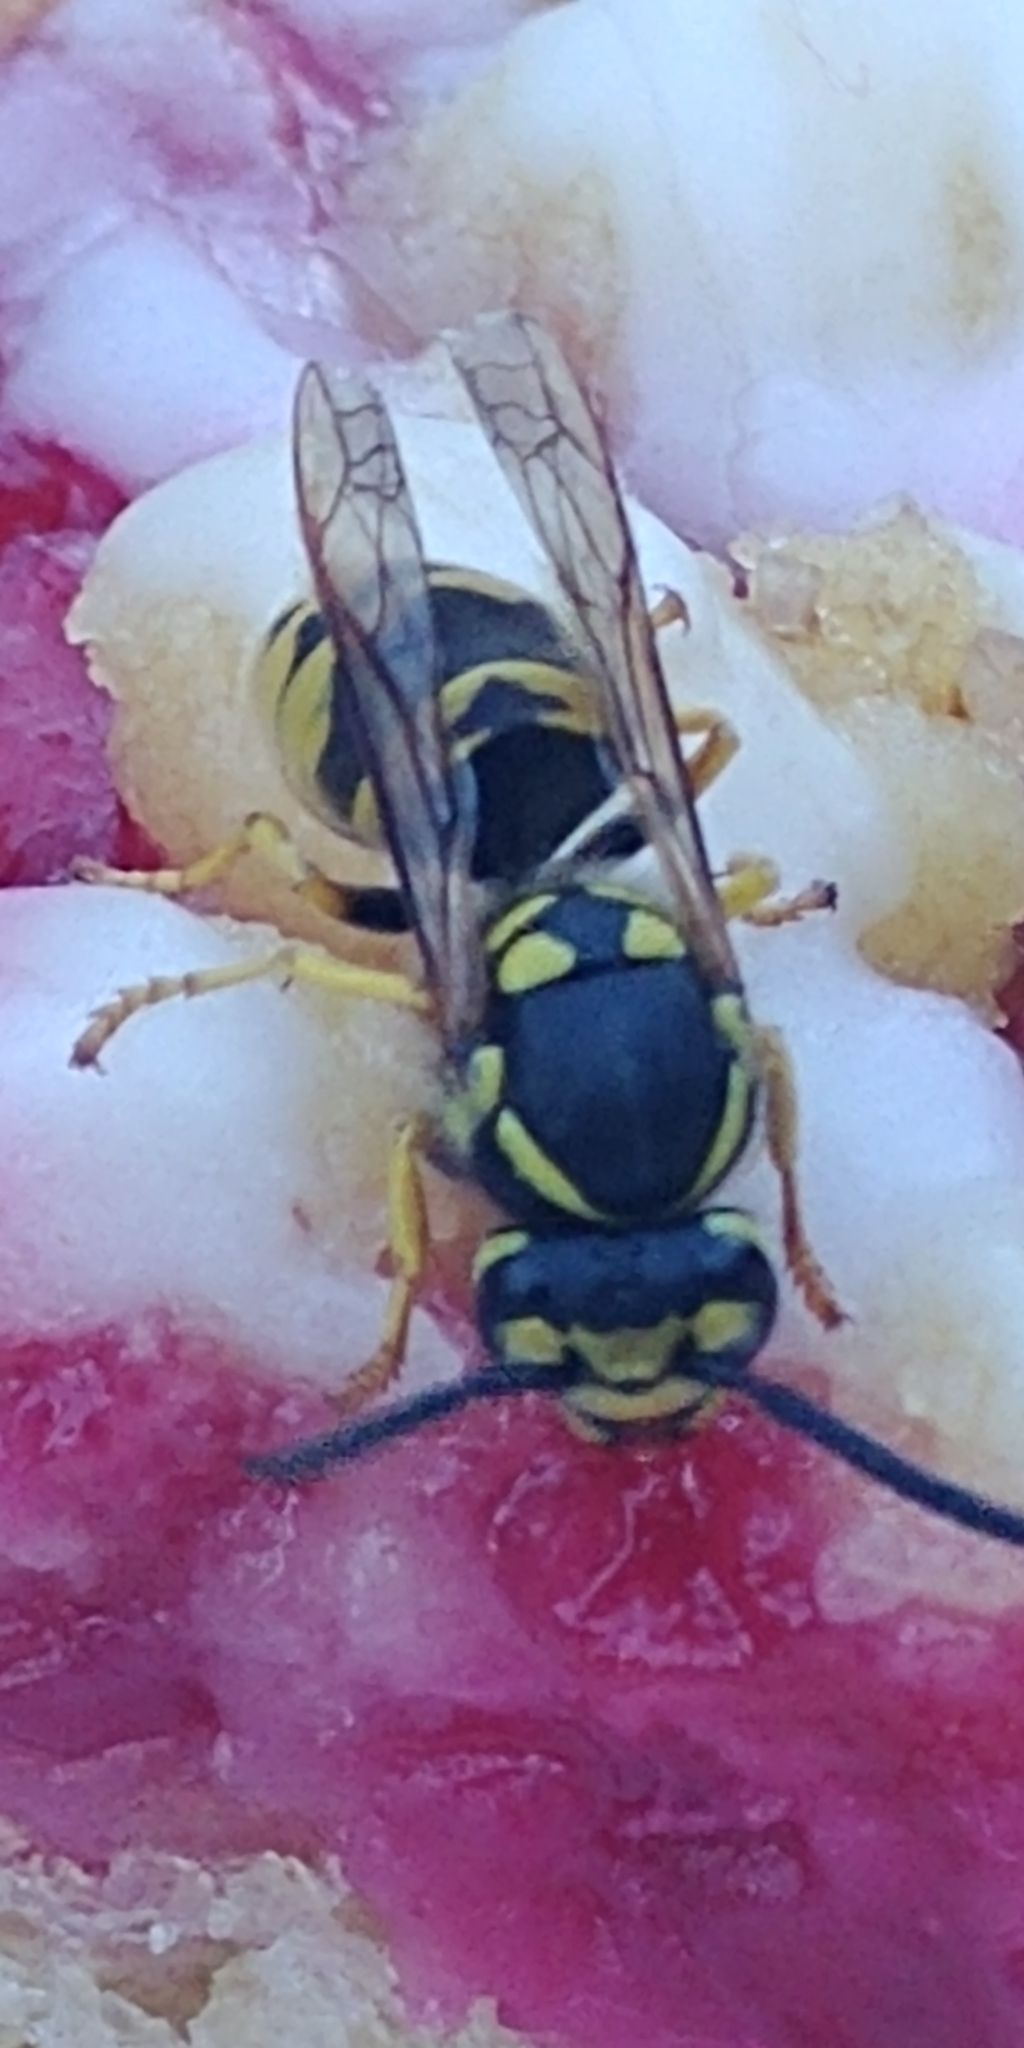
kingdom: Animalia
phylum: Arthropoda
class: Insecta
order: Hymenoptera
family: Vespidae
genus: Vespula
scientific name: Vespula germanica
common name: German wasp
